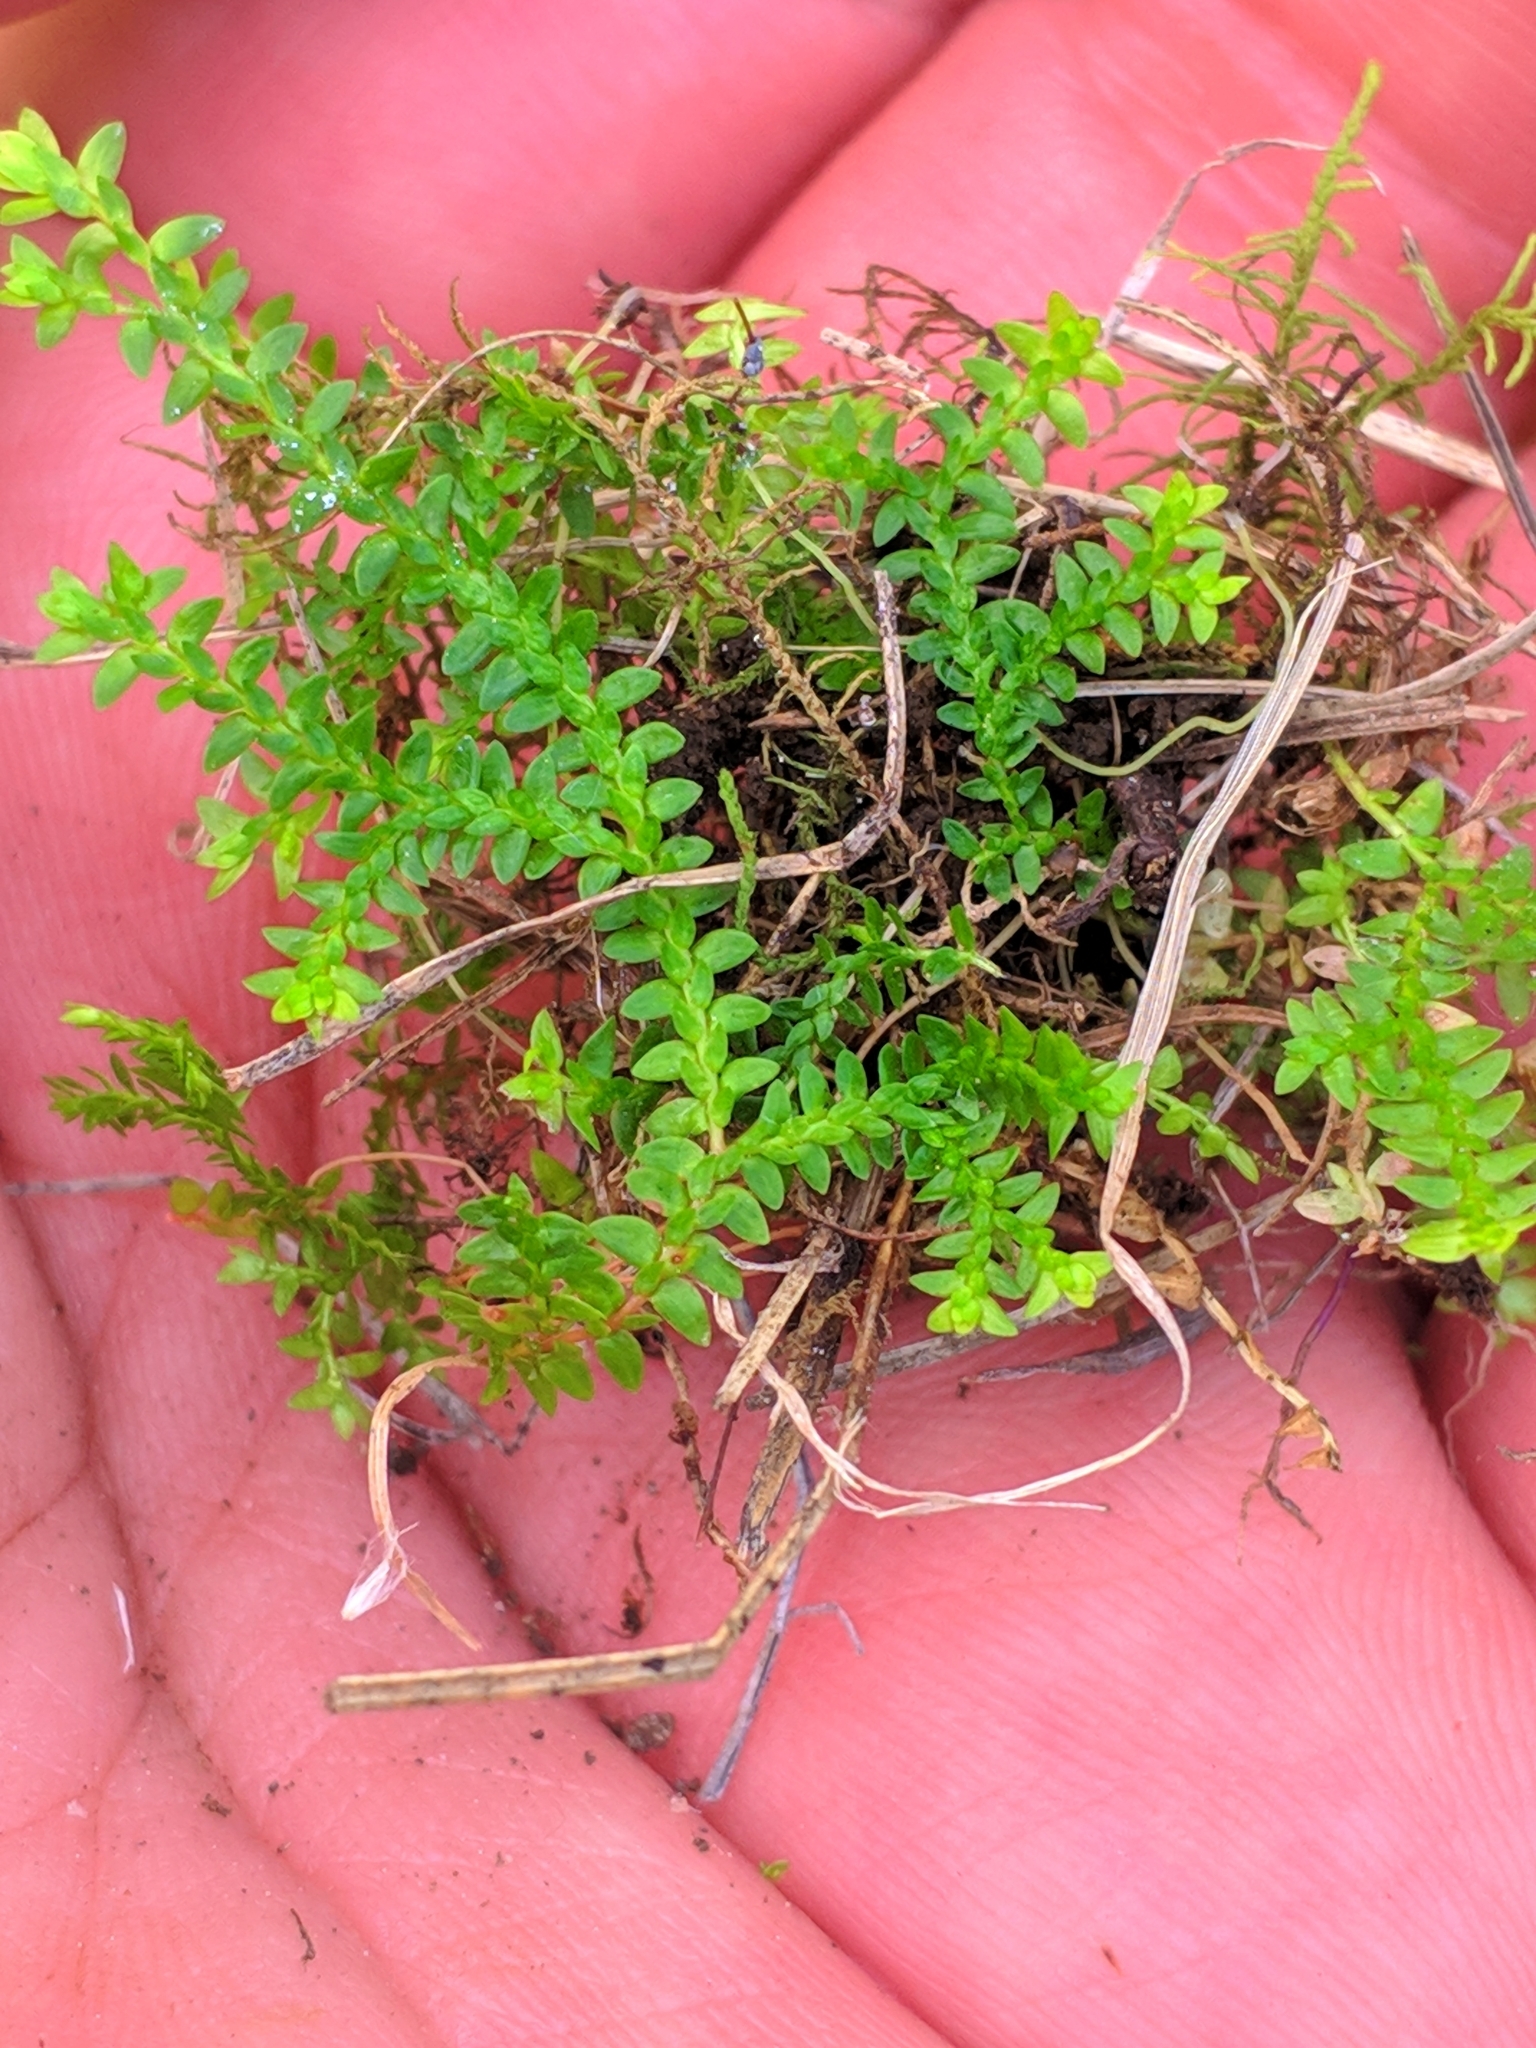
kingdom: Plantae
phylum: Tracheophyta
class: Lycopodiopsida
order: Selaginellales
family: Selaginellaceae
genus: Selaginella
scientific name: Selaginella helvetica
